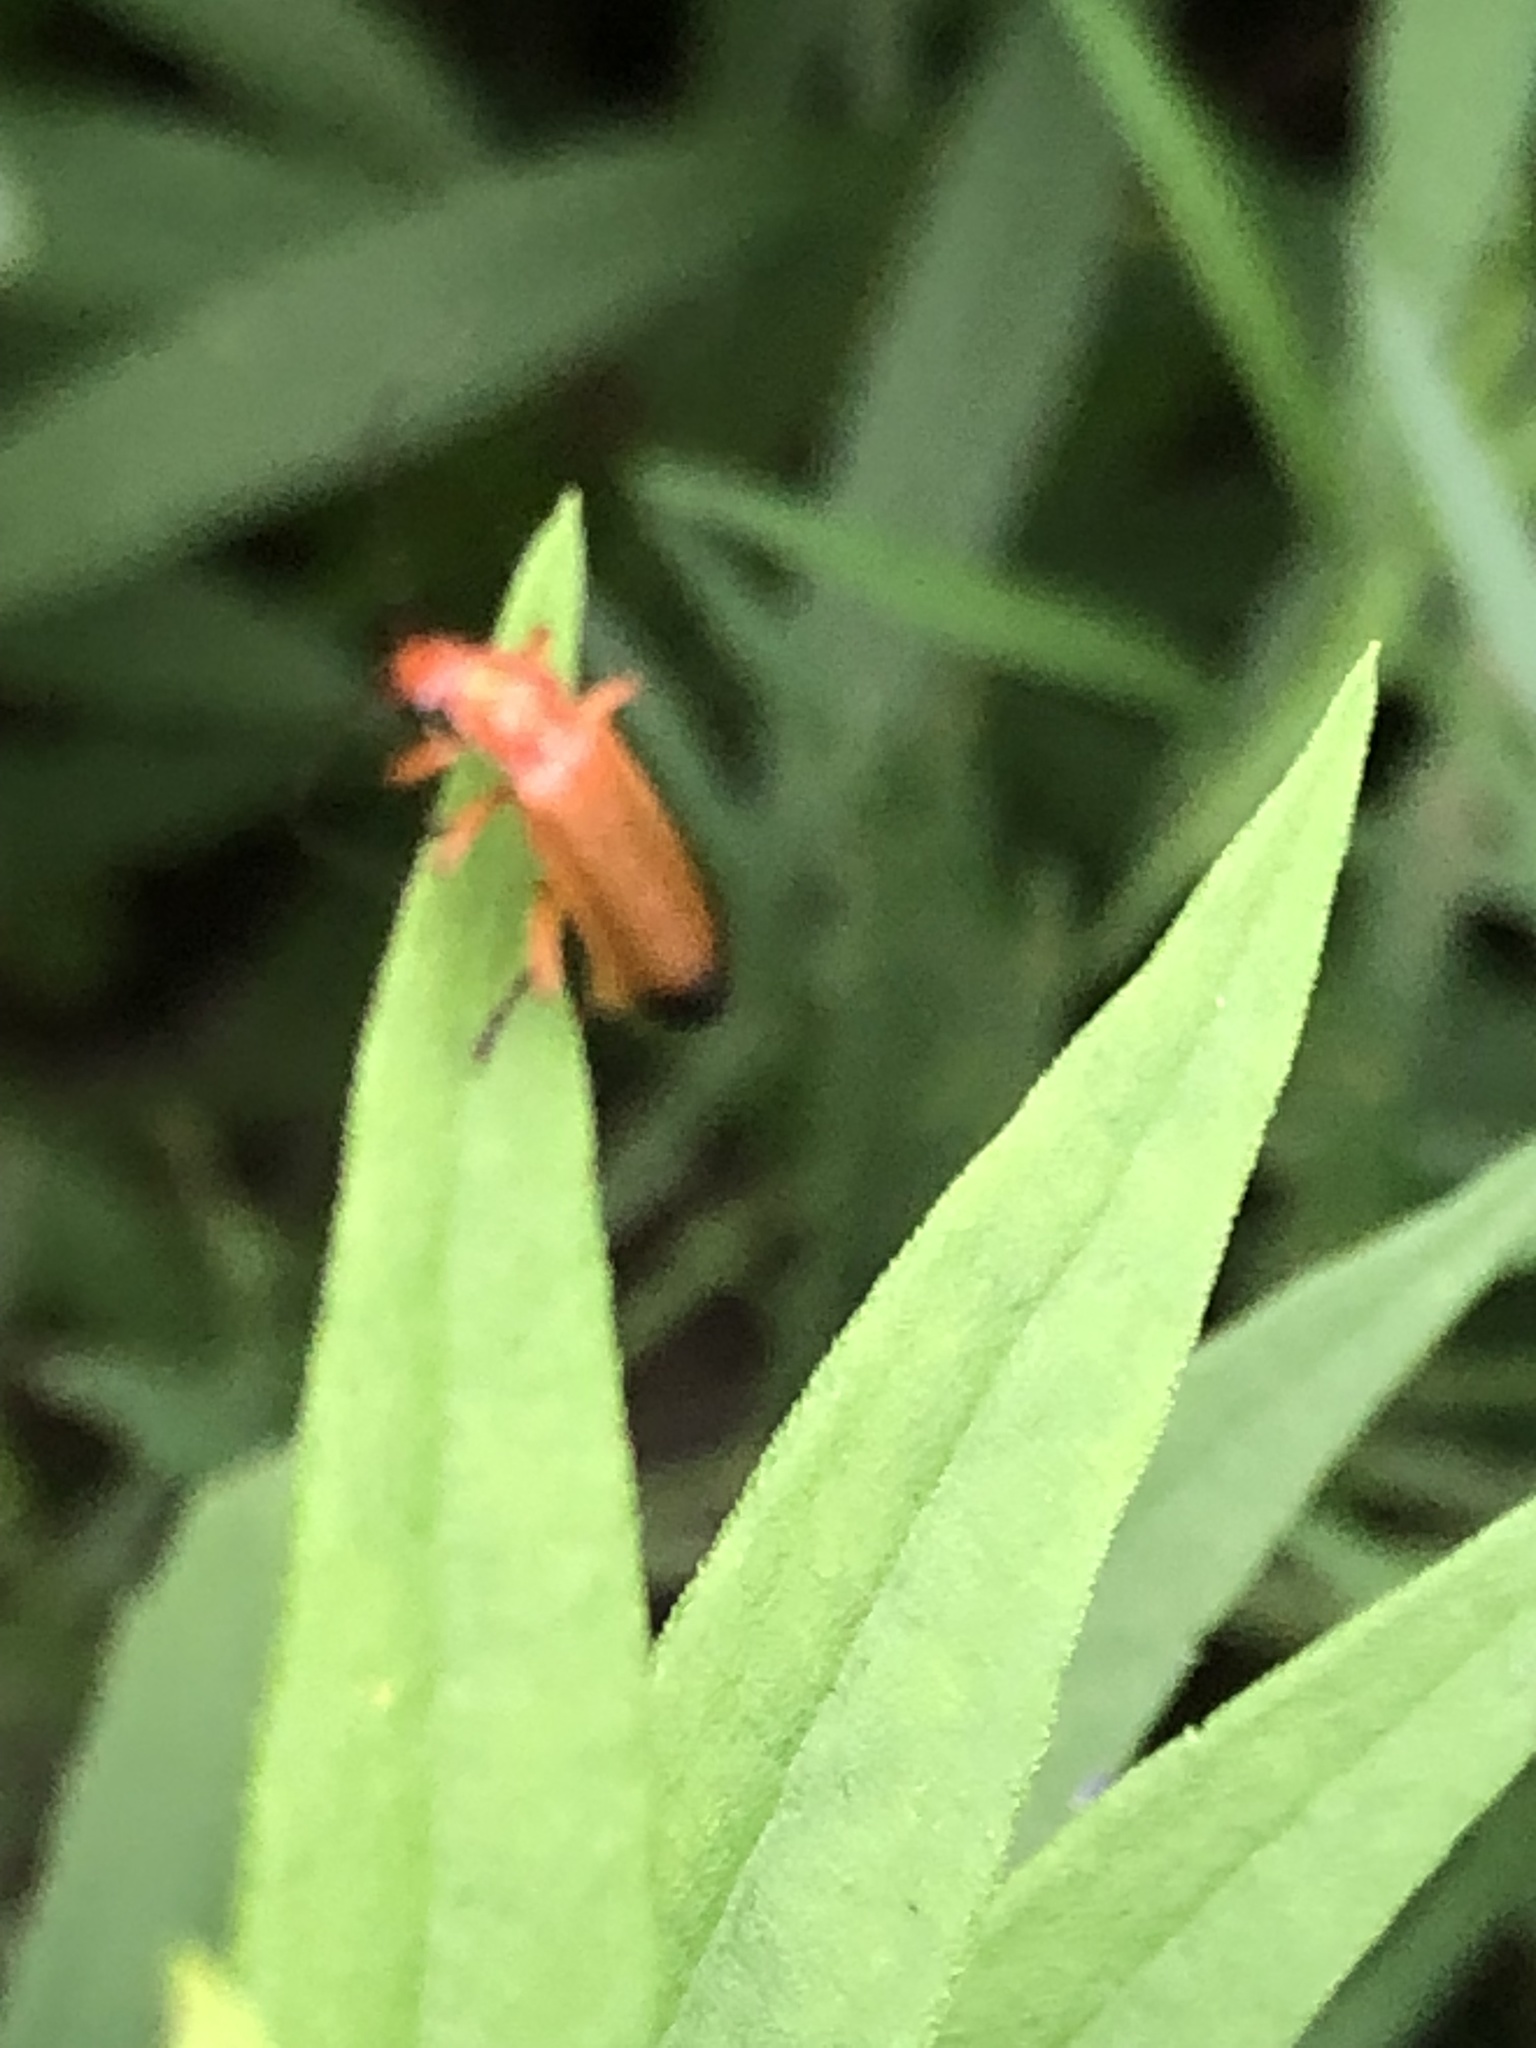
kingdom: Animalia
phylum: Arthropoda
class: Insecta
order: Coleoptera
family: Cantharidae
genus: Rhagonycha
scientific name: Rhagonycha fulva
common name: Common red soldier beetle
